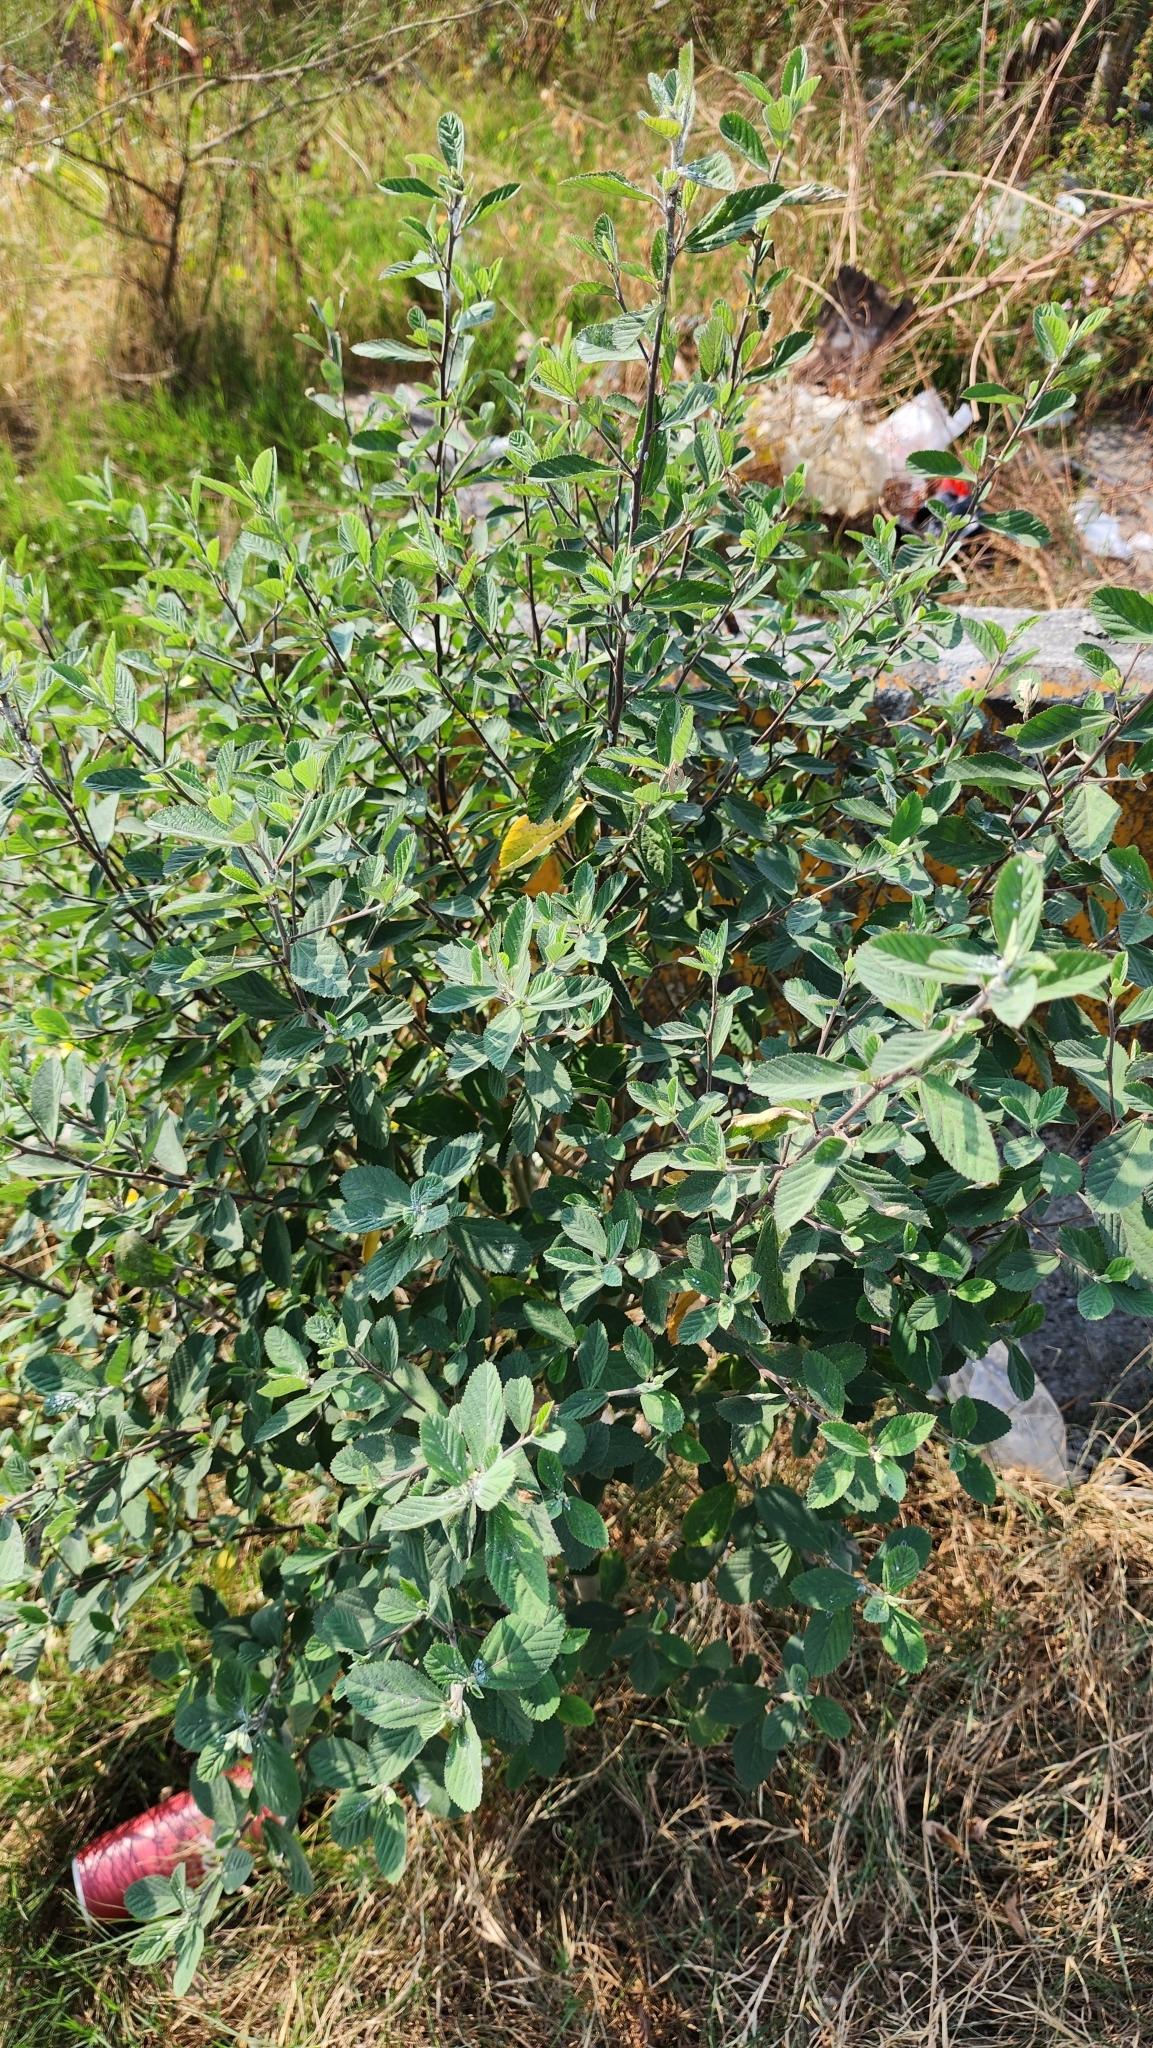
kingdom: Plantae
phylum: Tracheophyta
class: Magnoliopsida
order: Malvales
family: Malvaceae
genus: Sida
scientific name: Sida rhombifolia
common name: Queensland-hemp
